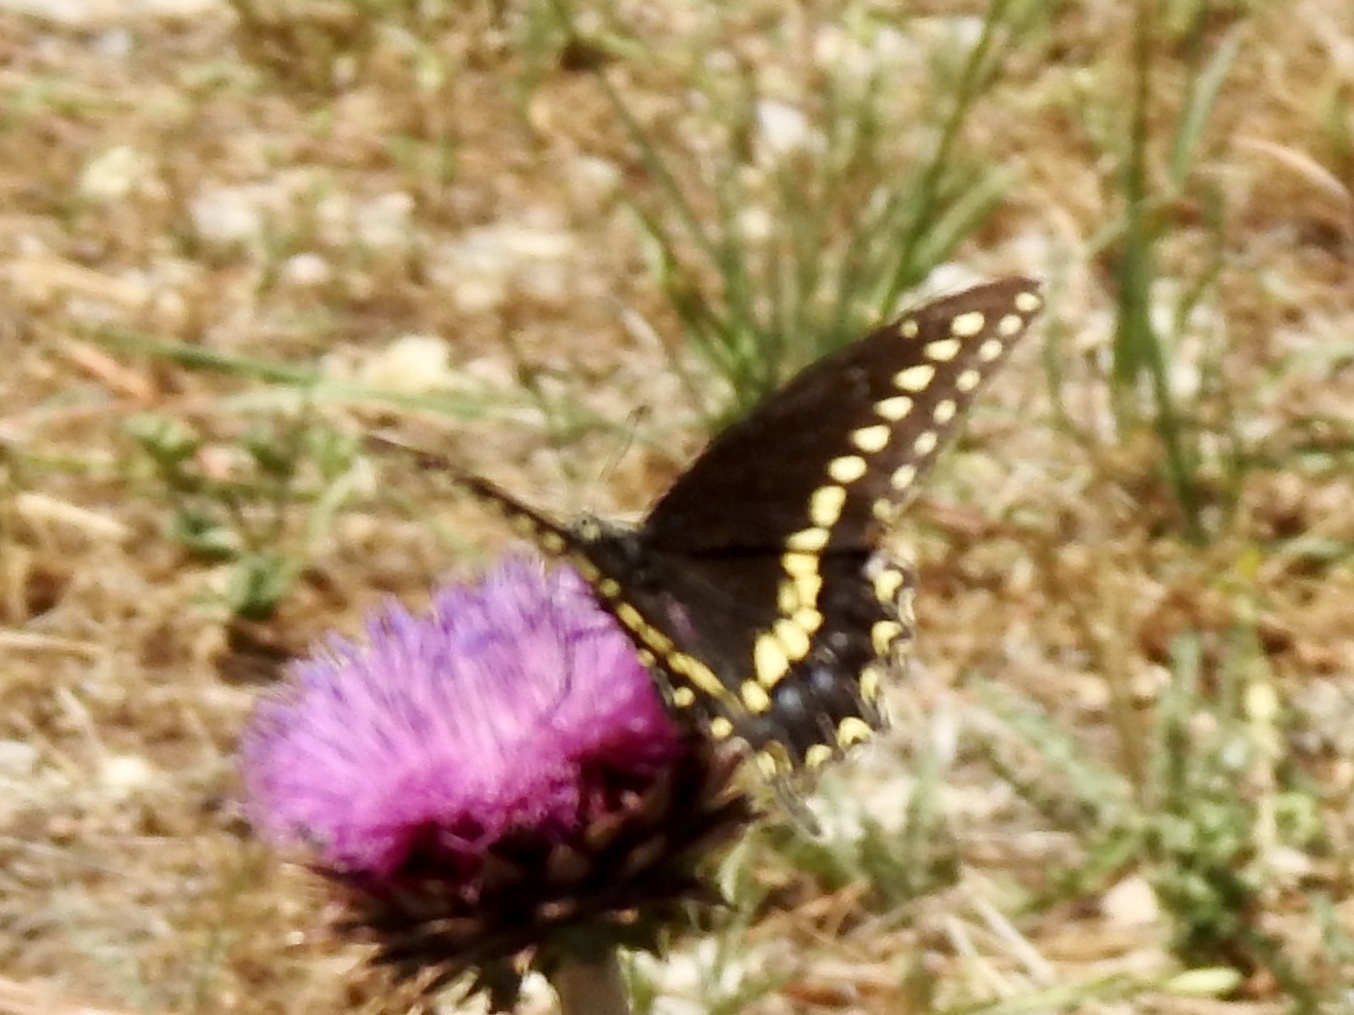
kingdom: Animalia
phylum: Arthropoda
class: Insecta
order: Lepidoptera
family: Papilionidae
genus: Papilio
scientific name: Papilio polyxenes
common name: Black swallowtail
